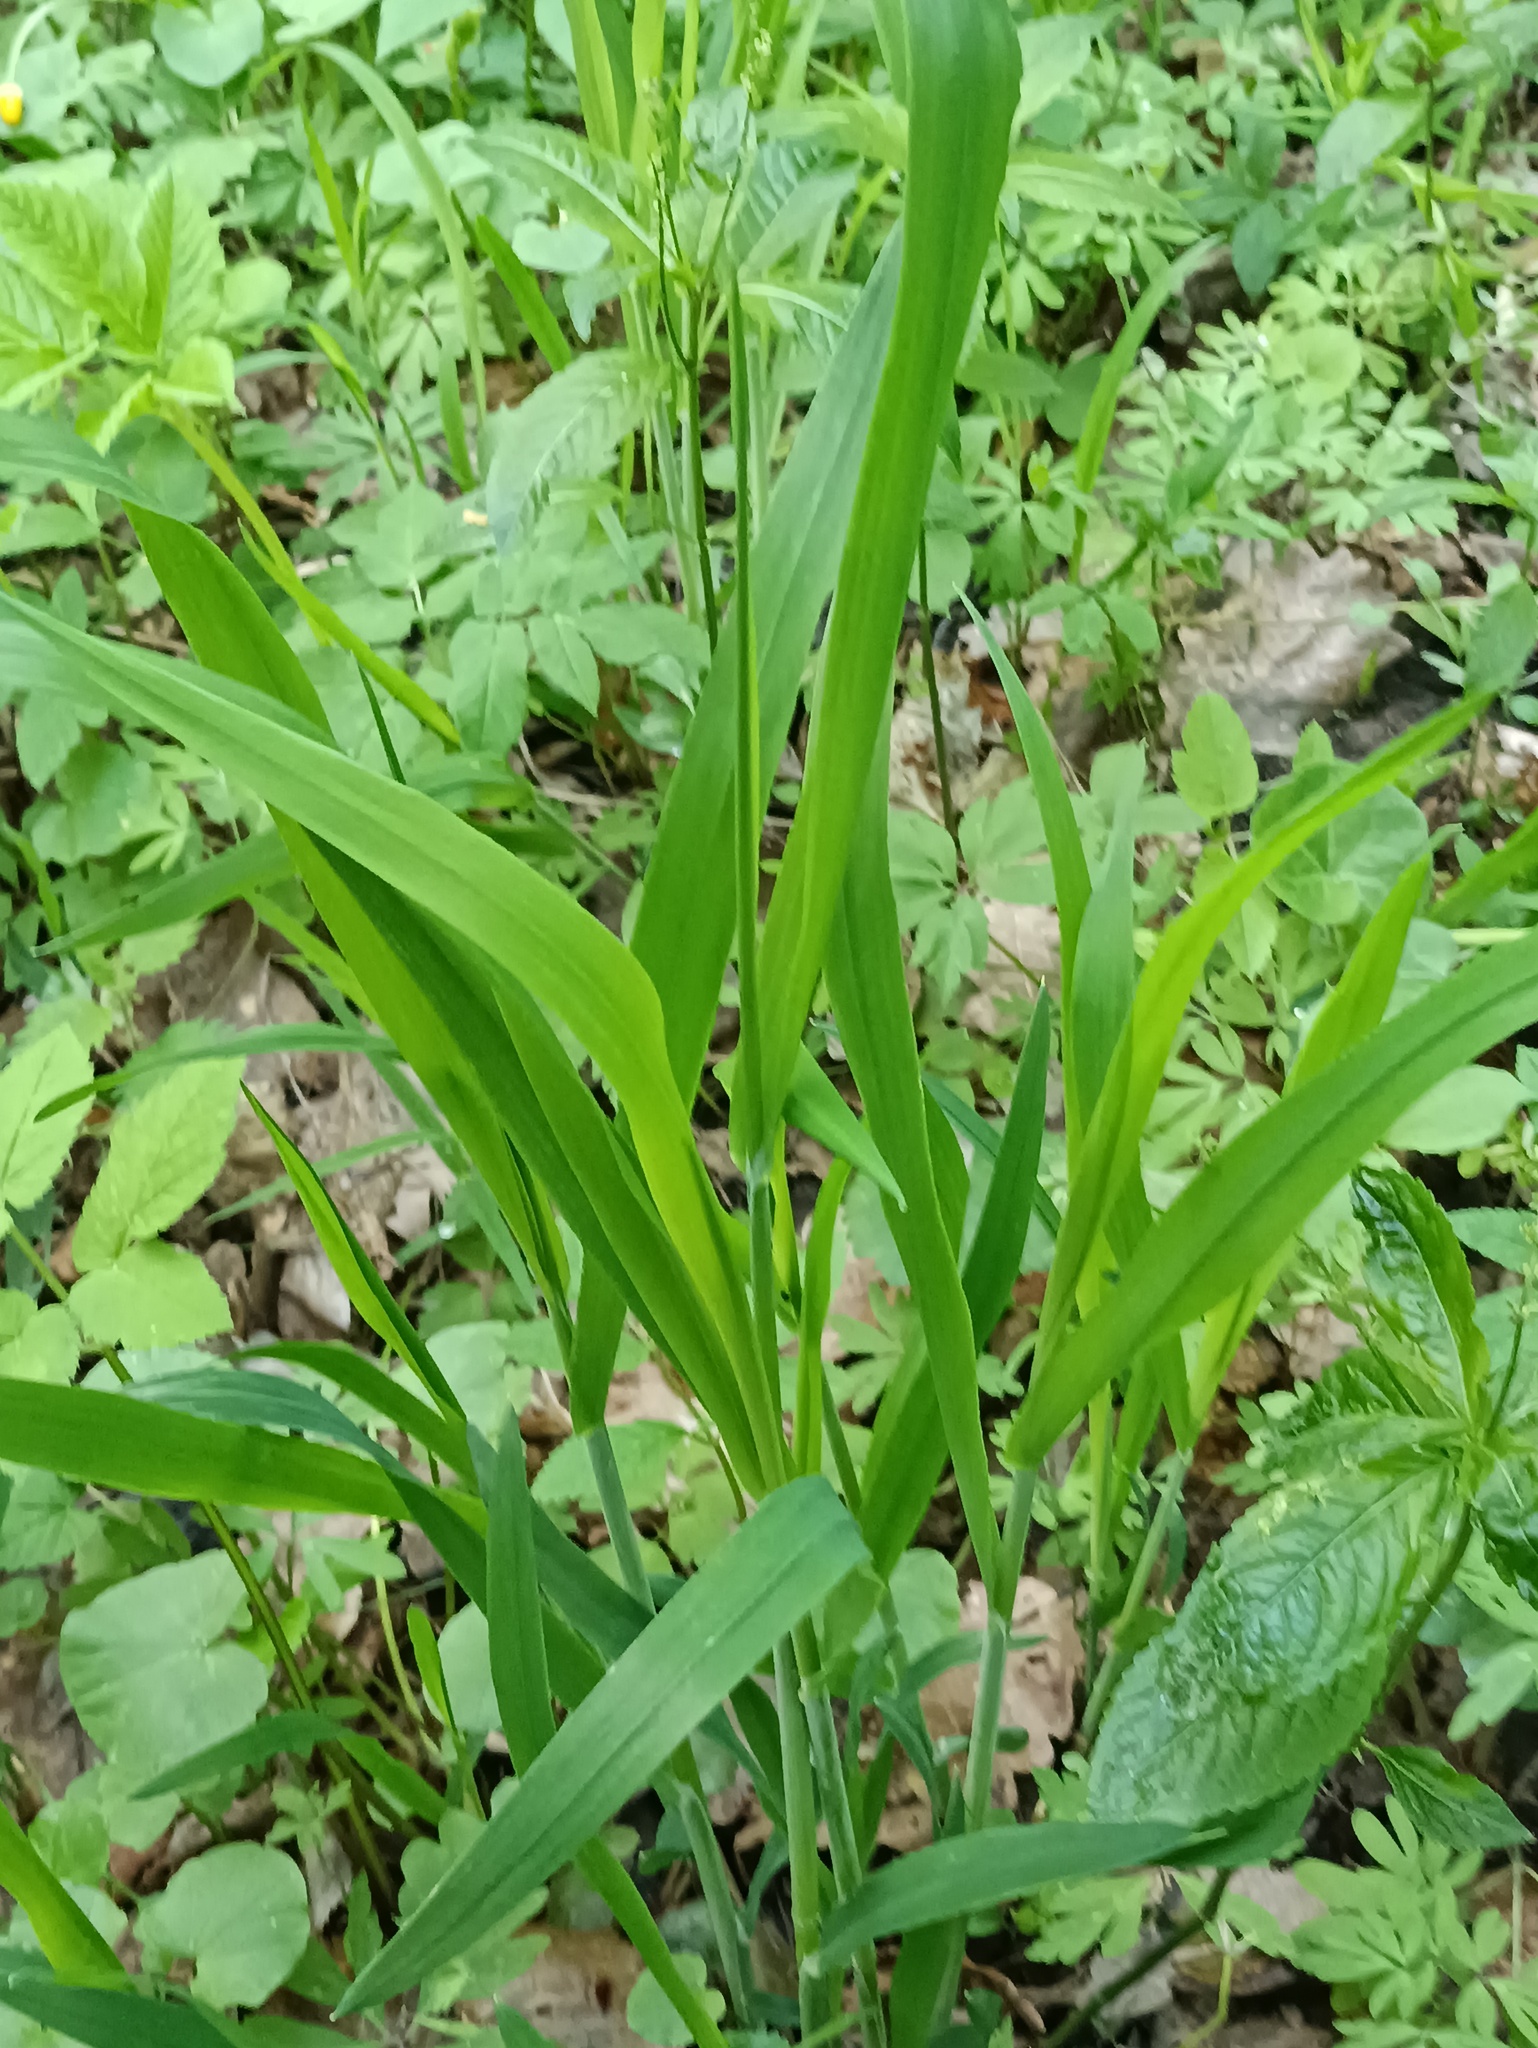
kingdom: Plantae
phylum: Tracheophyta
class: Liliopsida
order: Poales
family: Poaceae
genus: Milium
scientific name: Milium effusum
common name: Wood millet
